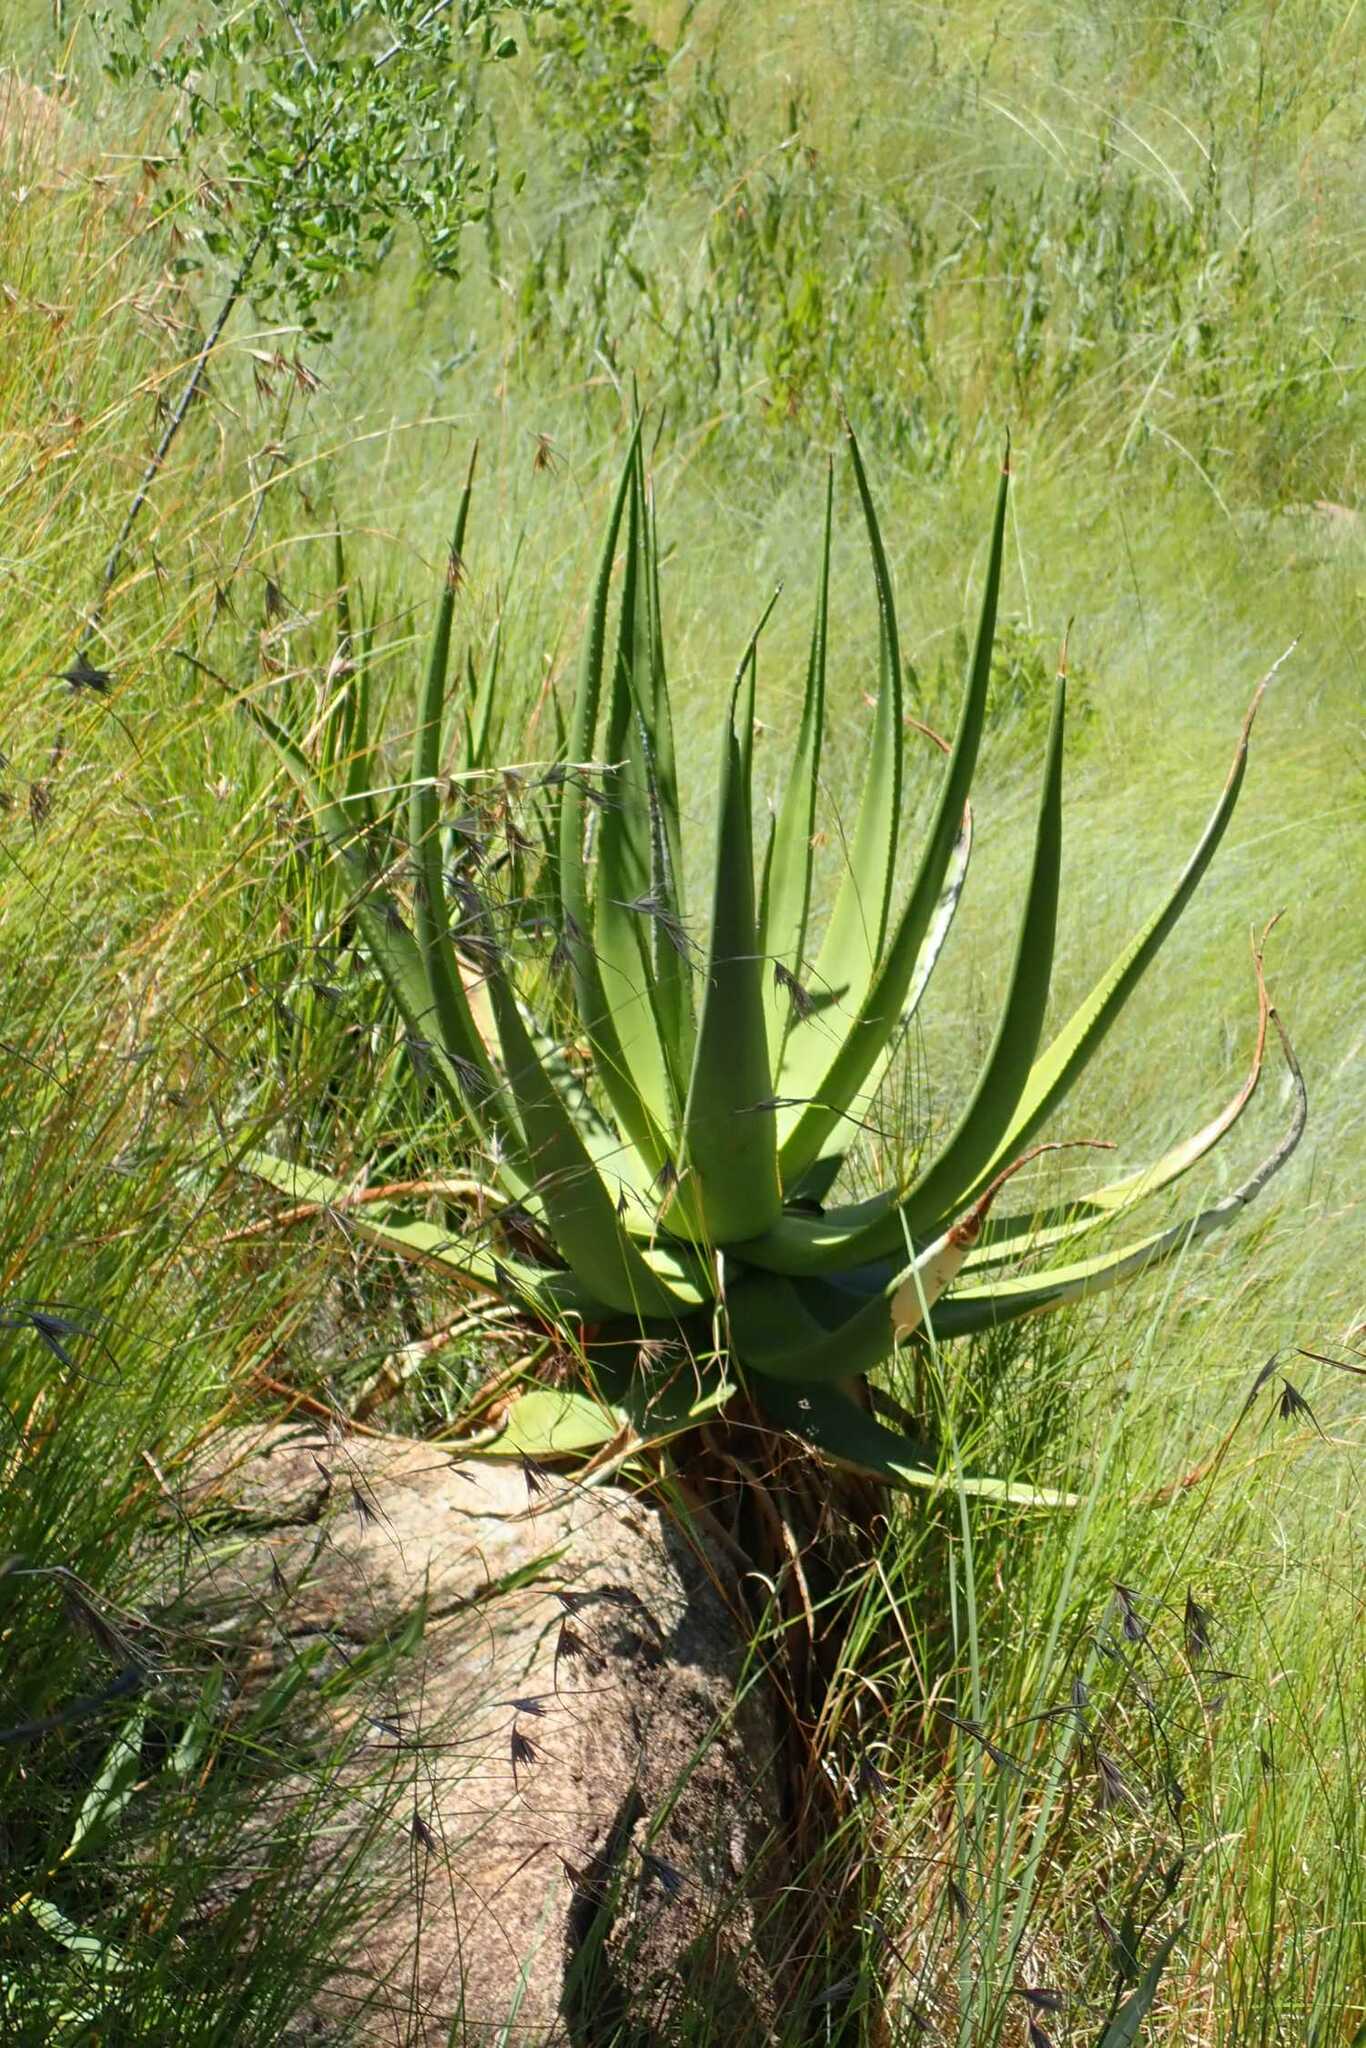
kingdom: Plantae
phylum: Tracheophyta
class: Liliopsida
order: Asparagales
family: Asphodelaceae
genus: Aloe
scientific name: Aloe barbara-jeppeae
